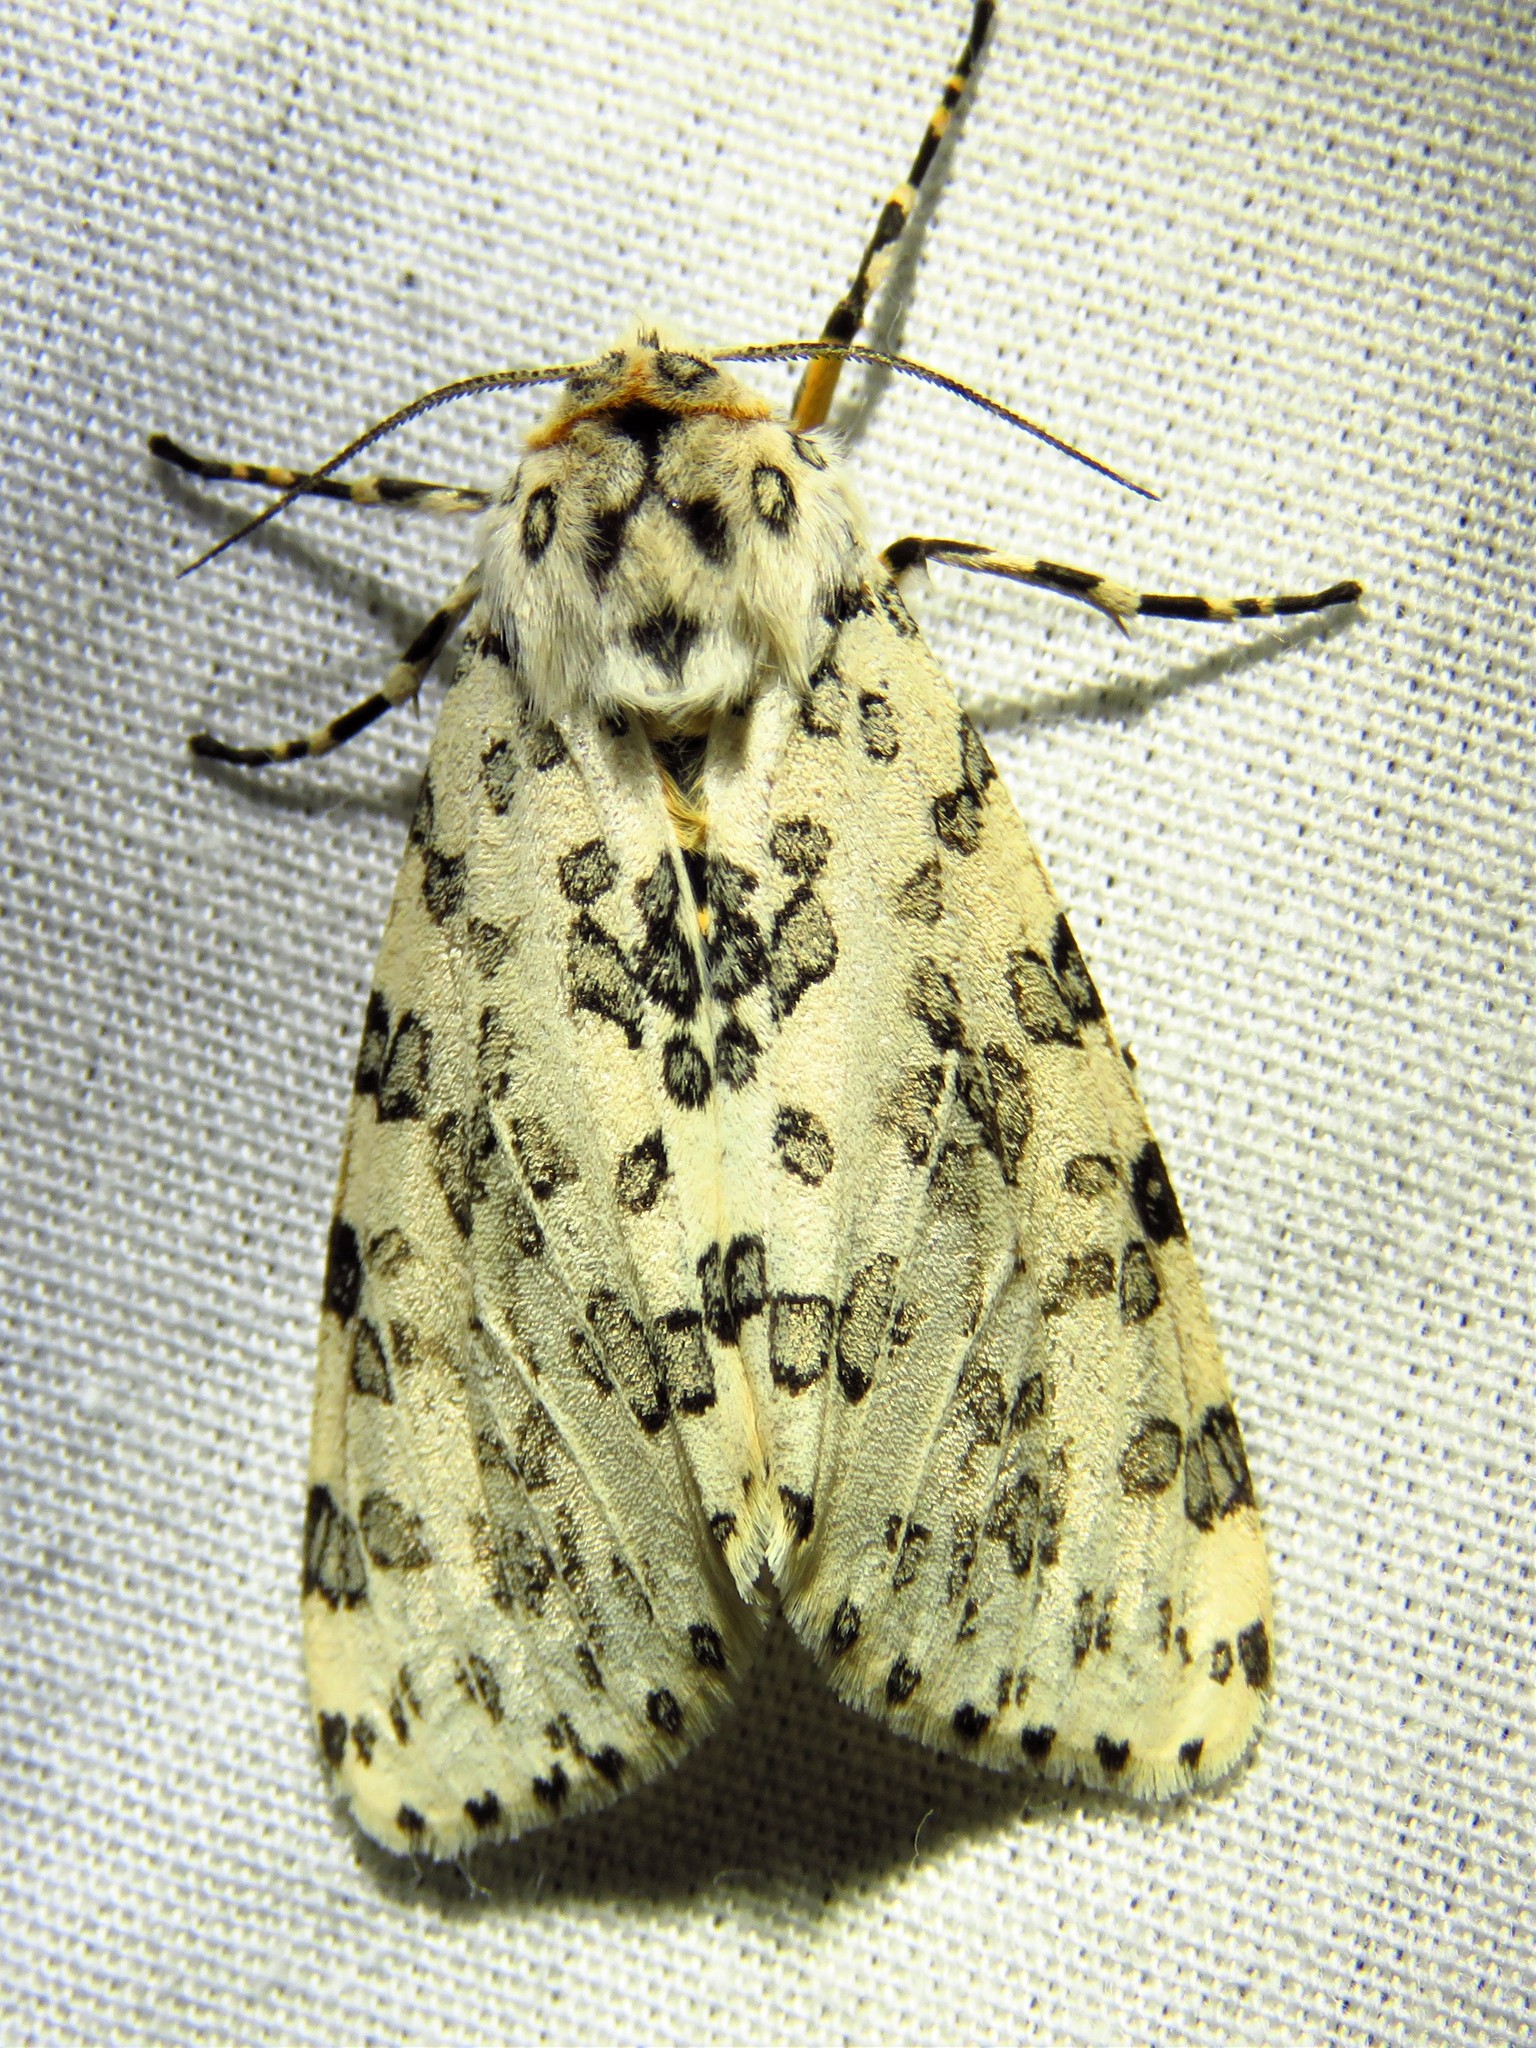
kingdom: Animalia
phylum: Arthropoda
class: Insecta
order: Lepidoptera
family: Erebidae
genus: Alpenus
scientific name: Alpenus maculosa
